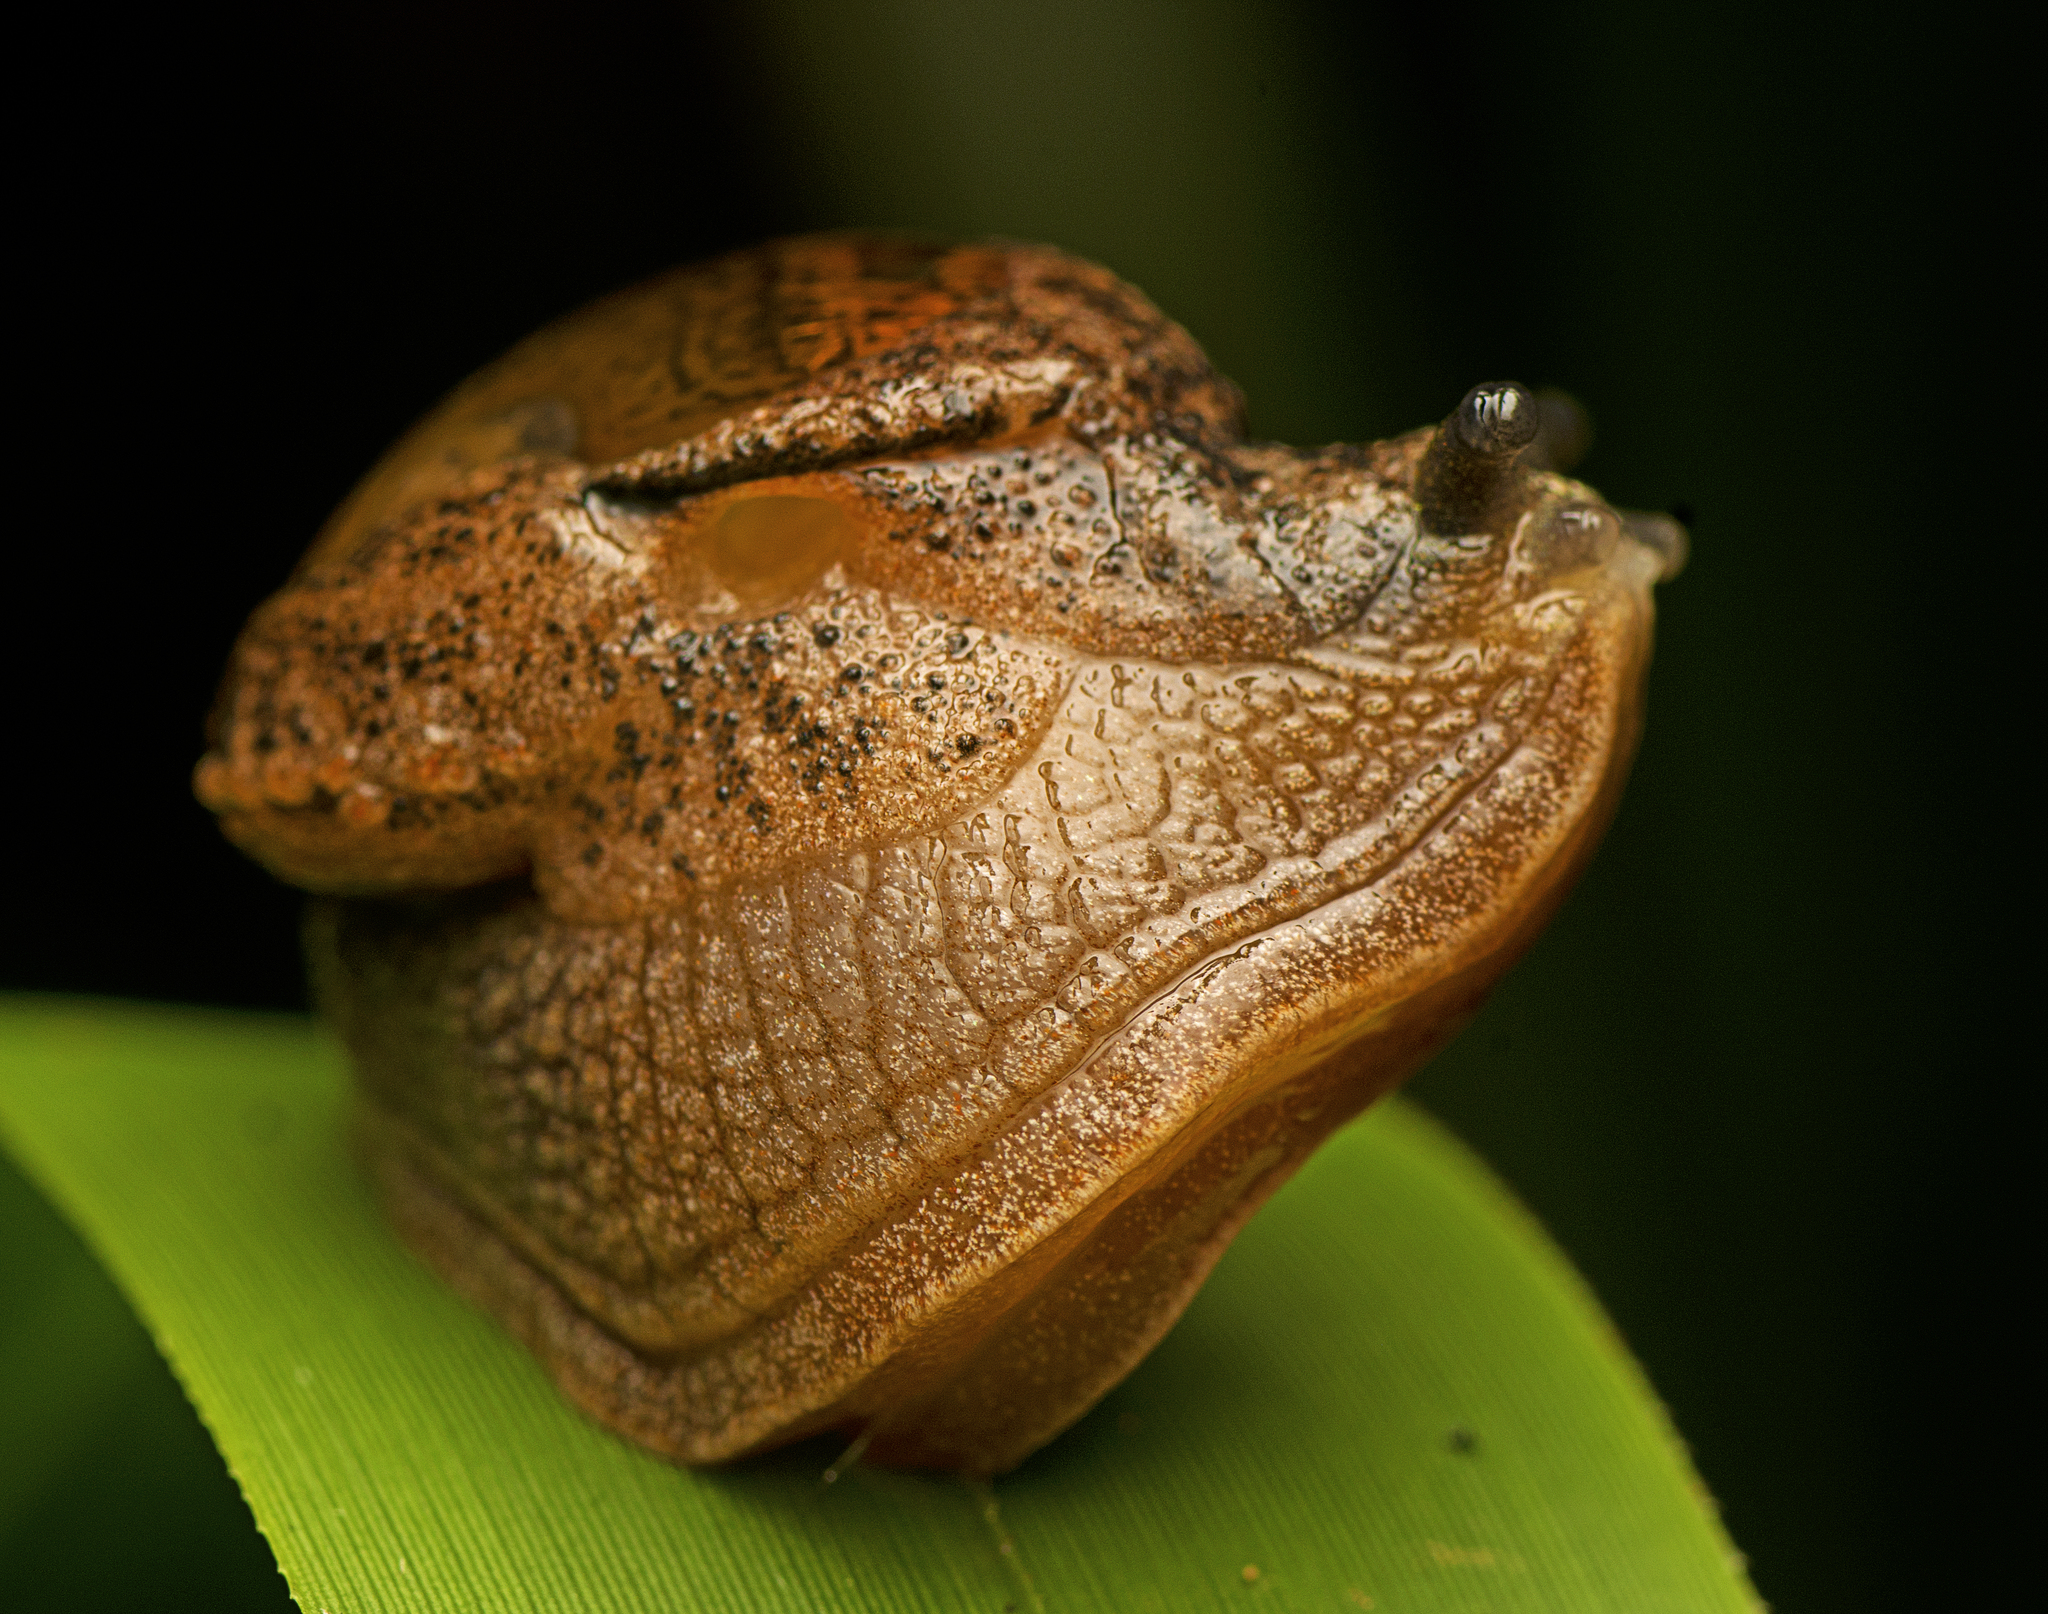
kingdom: Animalia
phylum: Mollusca
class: Gastropoda
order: Stylommatophora
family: Helicarionidae
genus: Stanisicarion
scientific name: Stanisicarion freycineti
